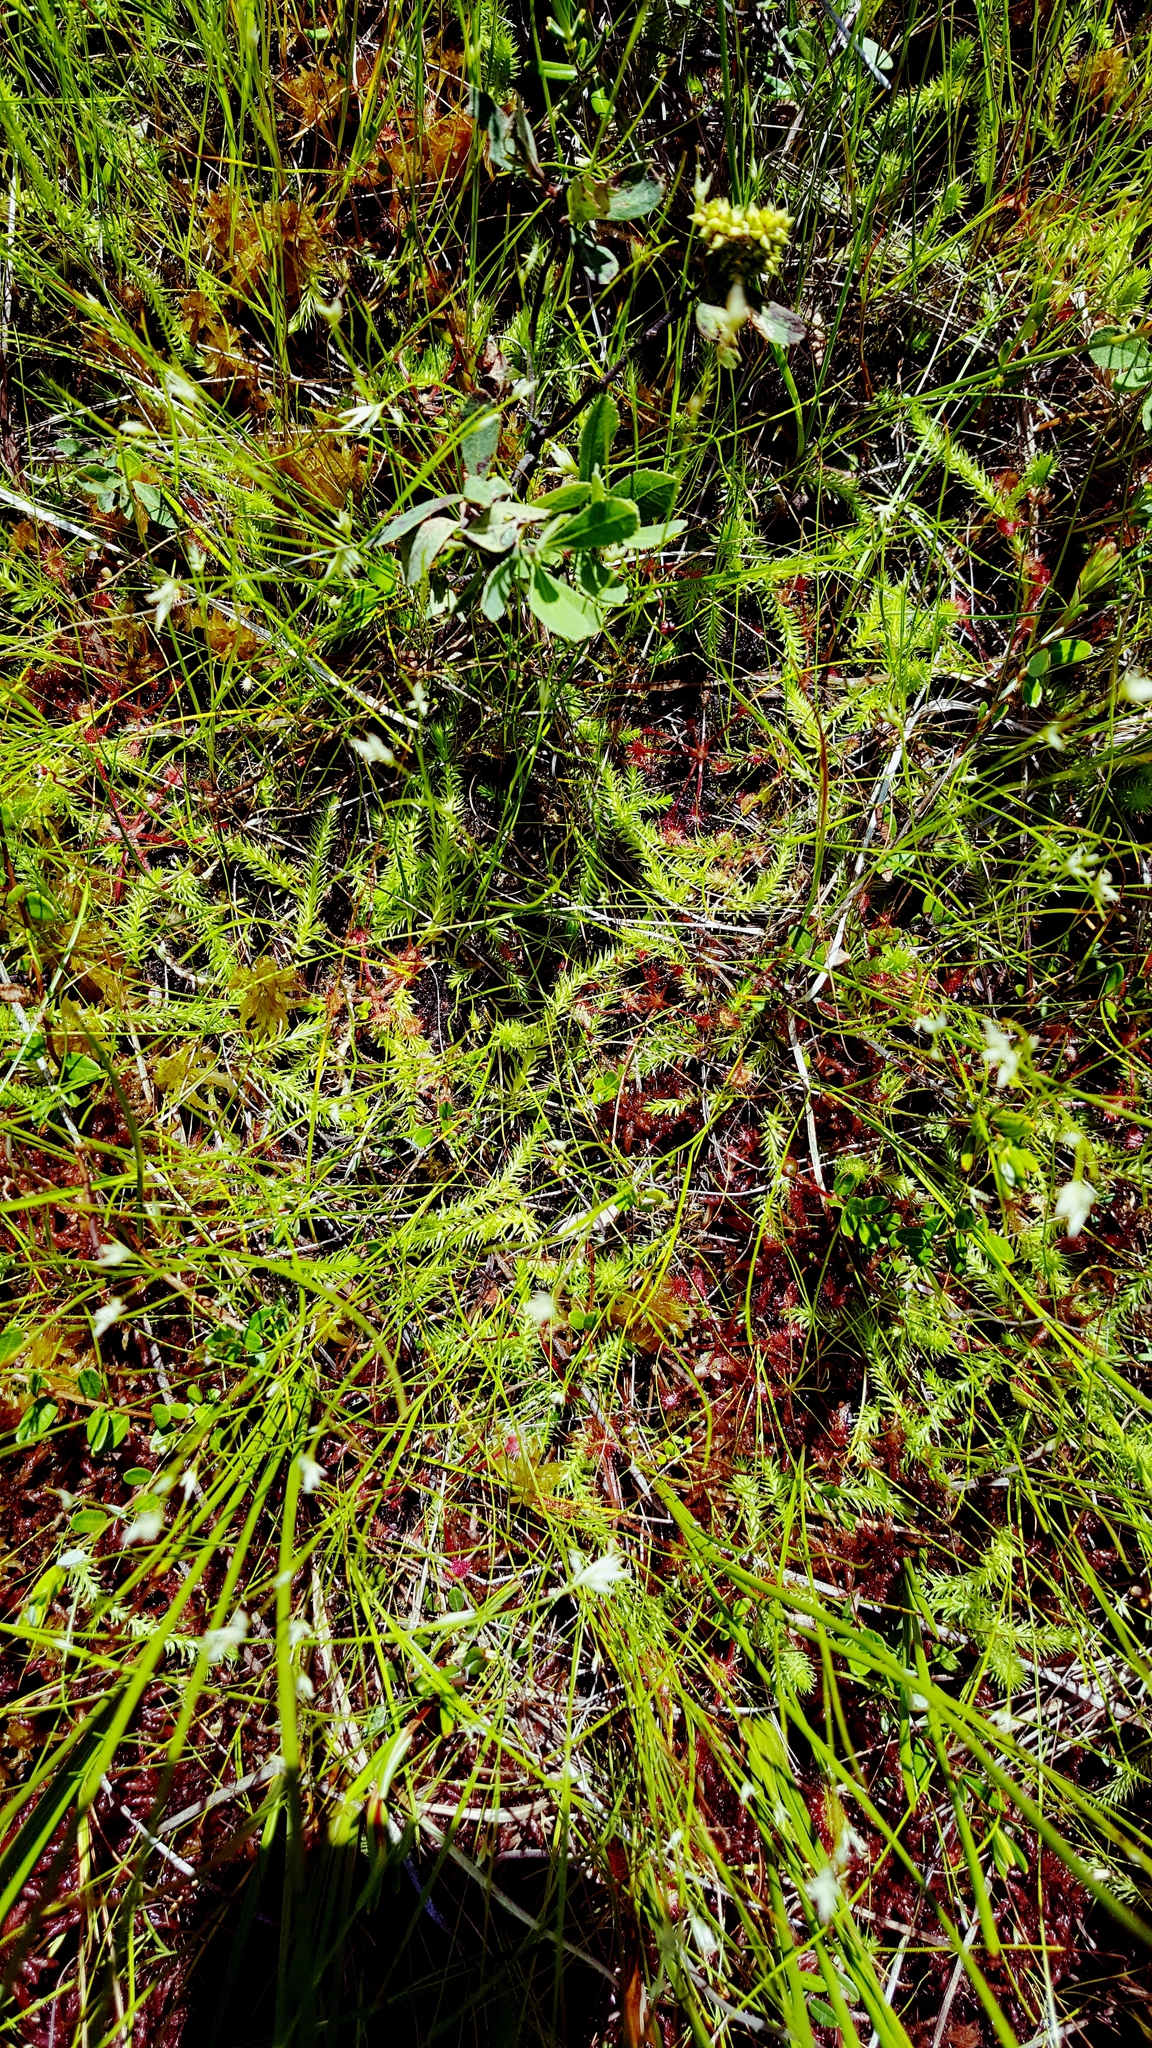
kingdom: Plantae
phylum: Tracheophyta
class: Lycopodiopsida
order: Lycopodiales
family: Lycopodiaceae
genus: Lycopodiella
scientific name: Lycopodiella inundata
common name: Marsh clubmoss
